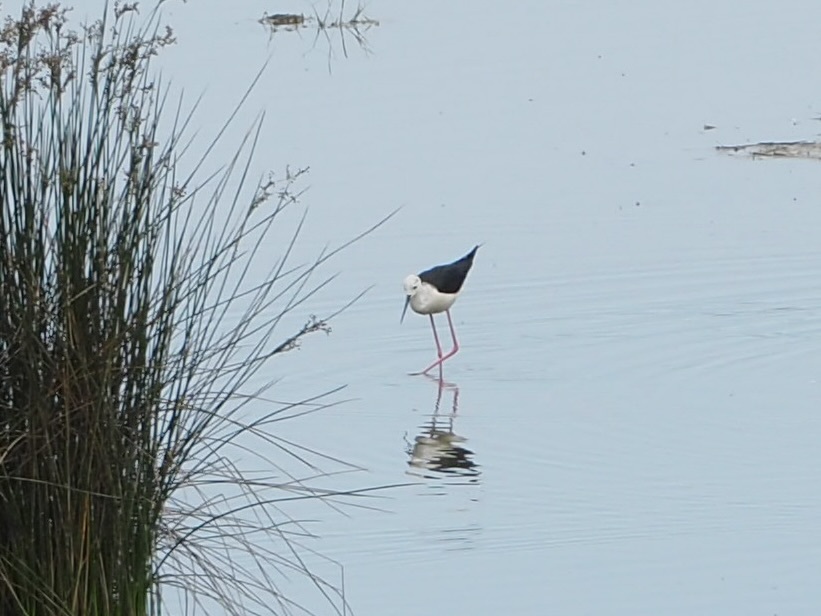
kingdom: Animalia
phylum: Chordata
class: Aves
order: Charadriiformes
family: Recurvirostridae
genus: Himantopus
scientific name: Himantopus himantopus
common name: Black-winged stilt
